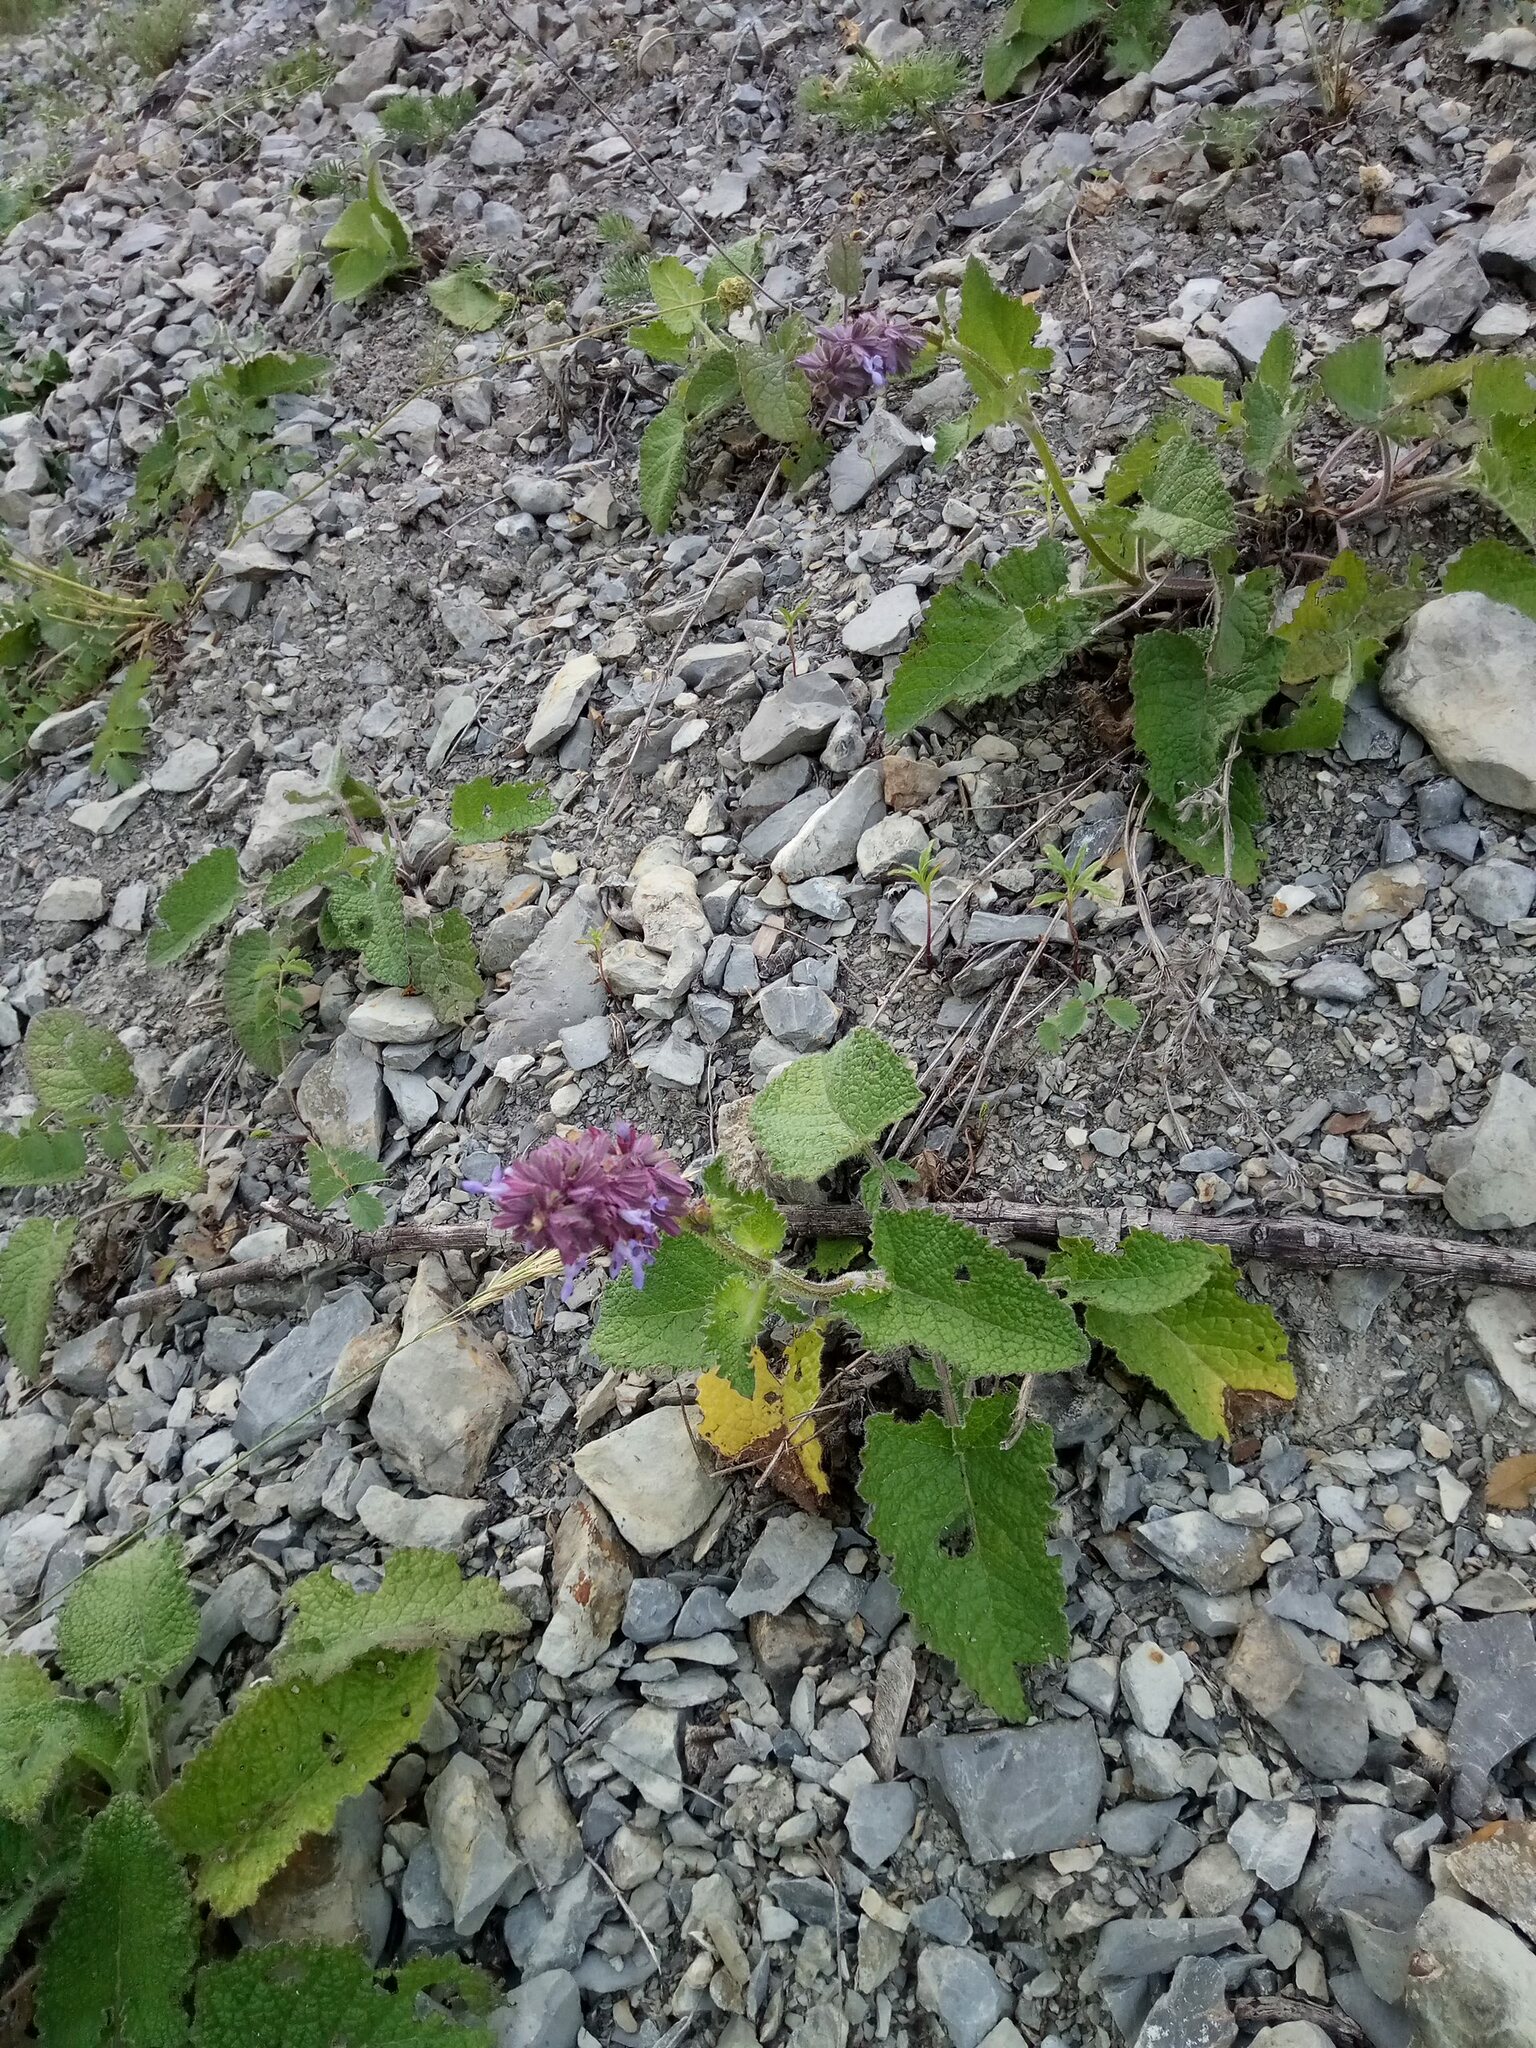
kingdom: Plantae
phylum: Tracheophyta
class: Magnoliopsida
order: Lamiales
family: Lamiaceae
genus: Salvia
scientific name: Salvia verticillata
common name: Whorled clary
